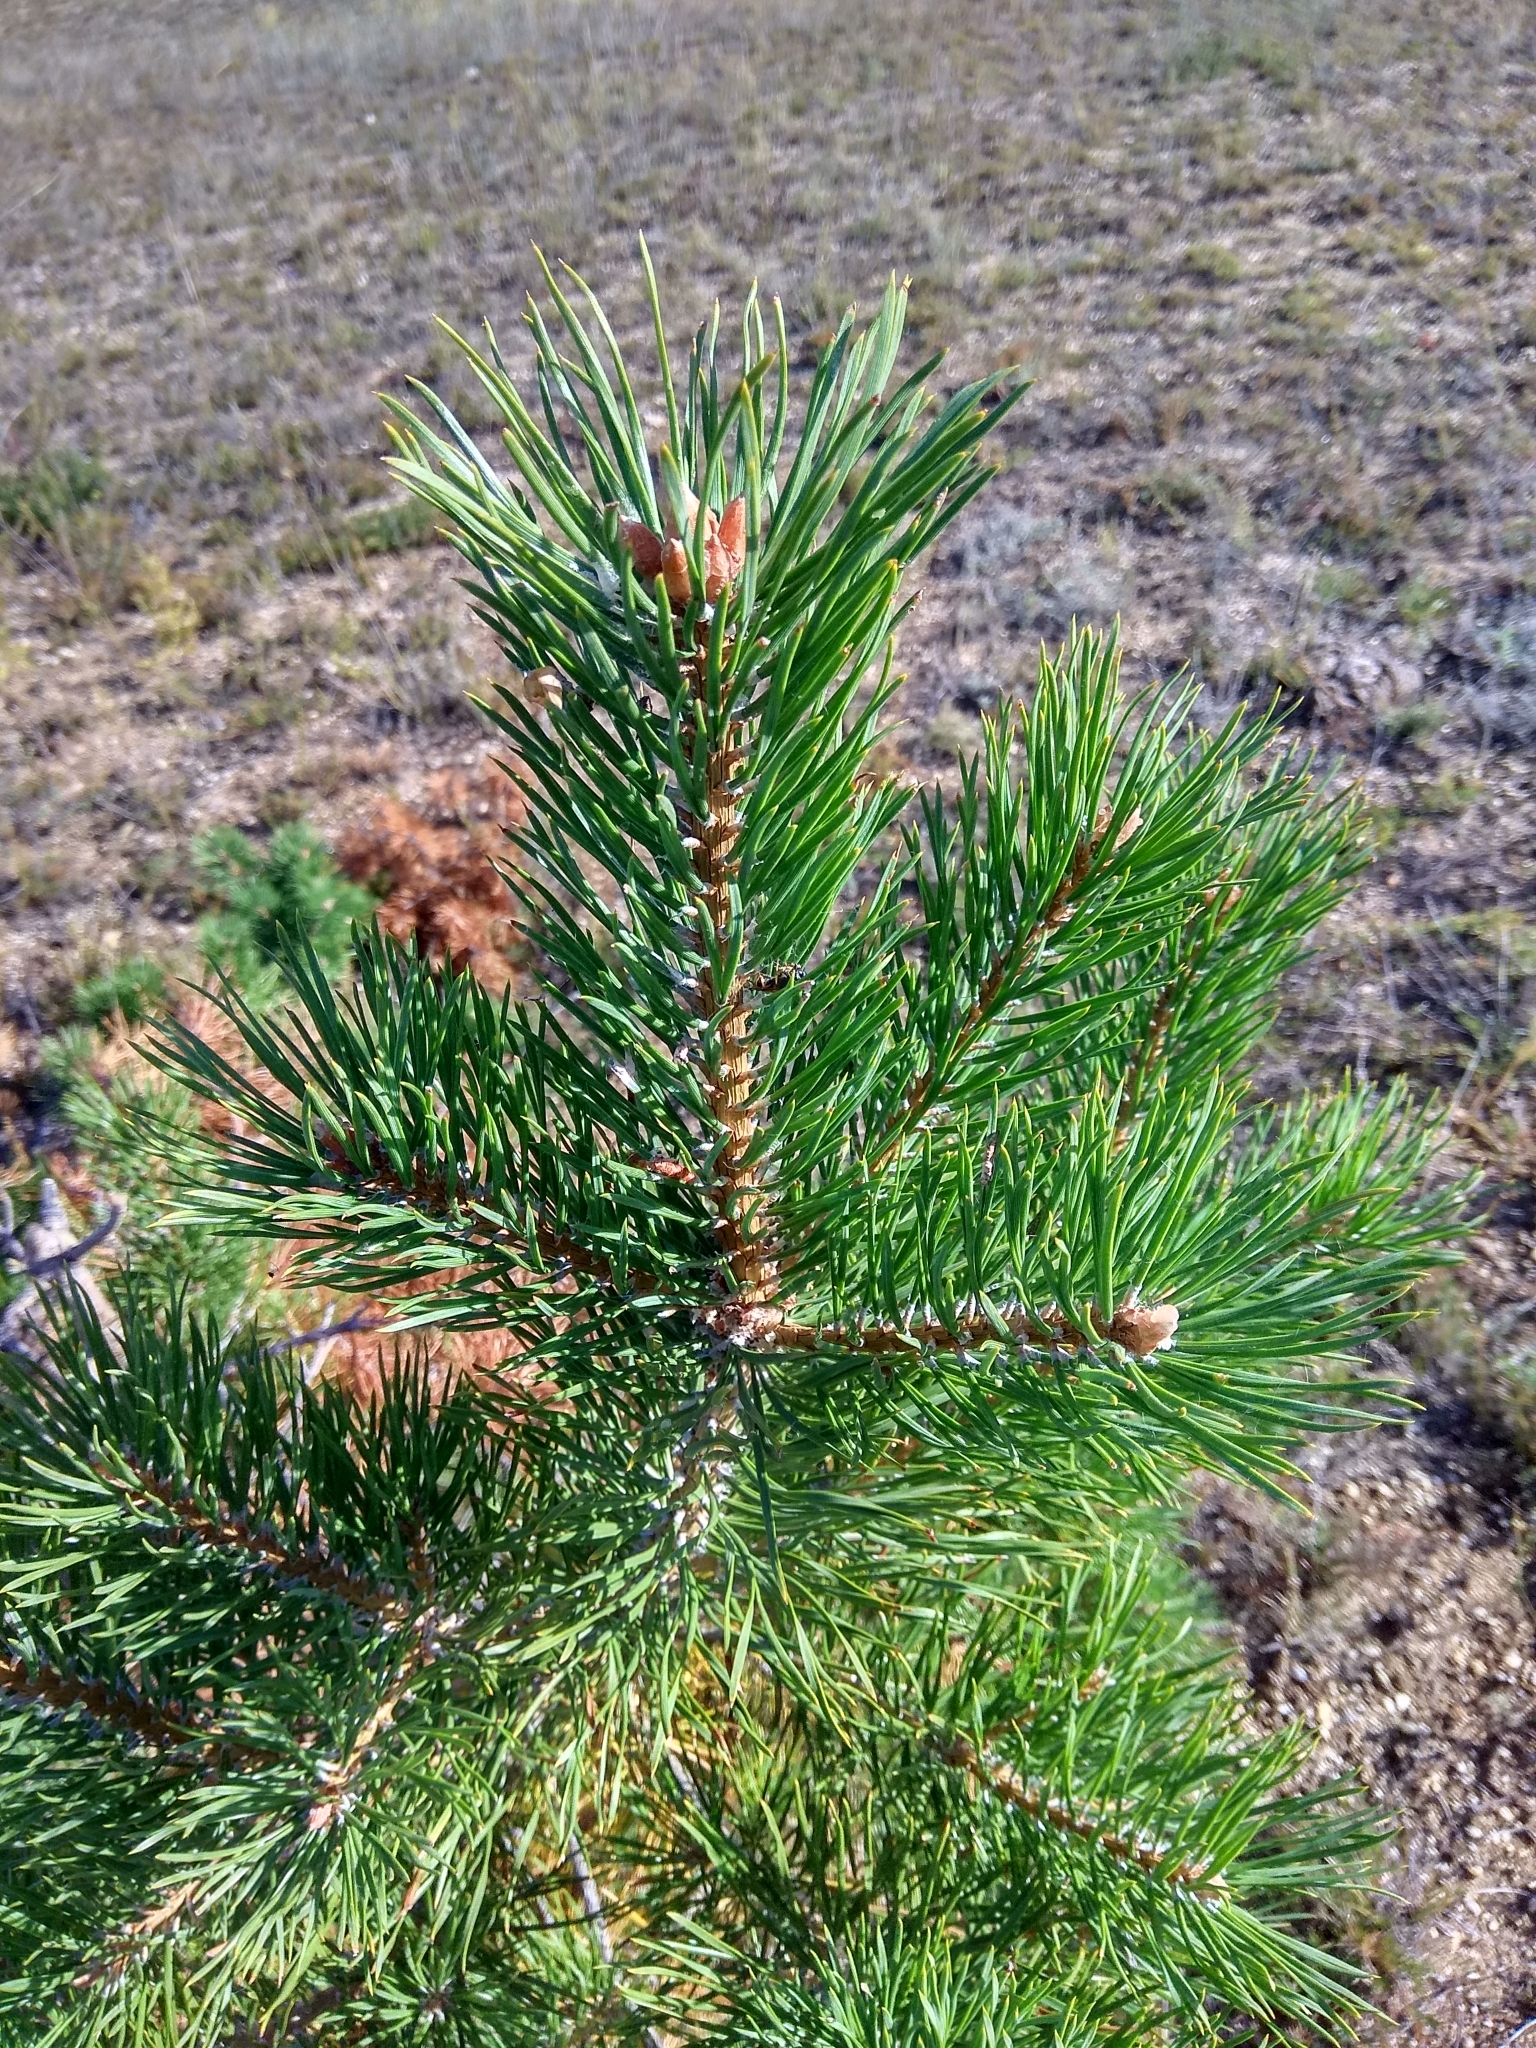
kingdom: Plantae
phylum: Tracheophyta
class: Pinopsida
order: Pinales
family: Pinaceae
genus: Pinus
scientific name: Pinus sylvestris
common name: Scots pine
